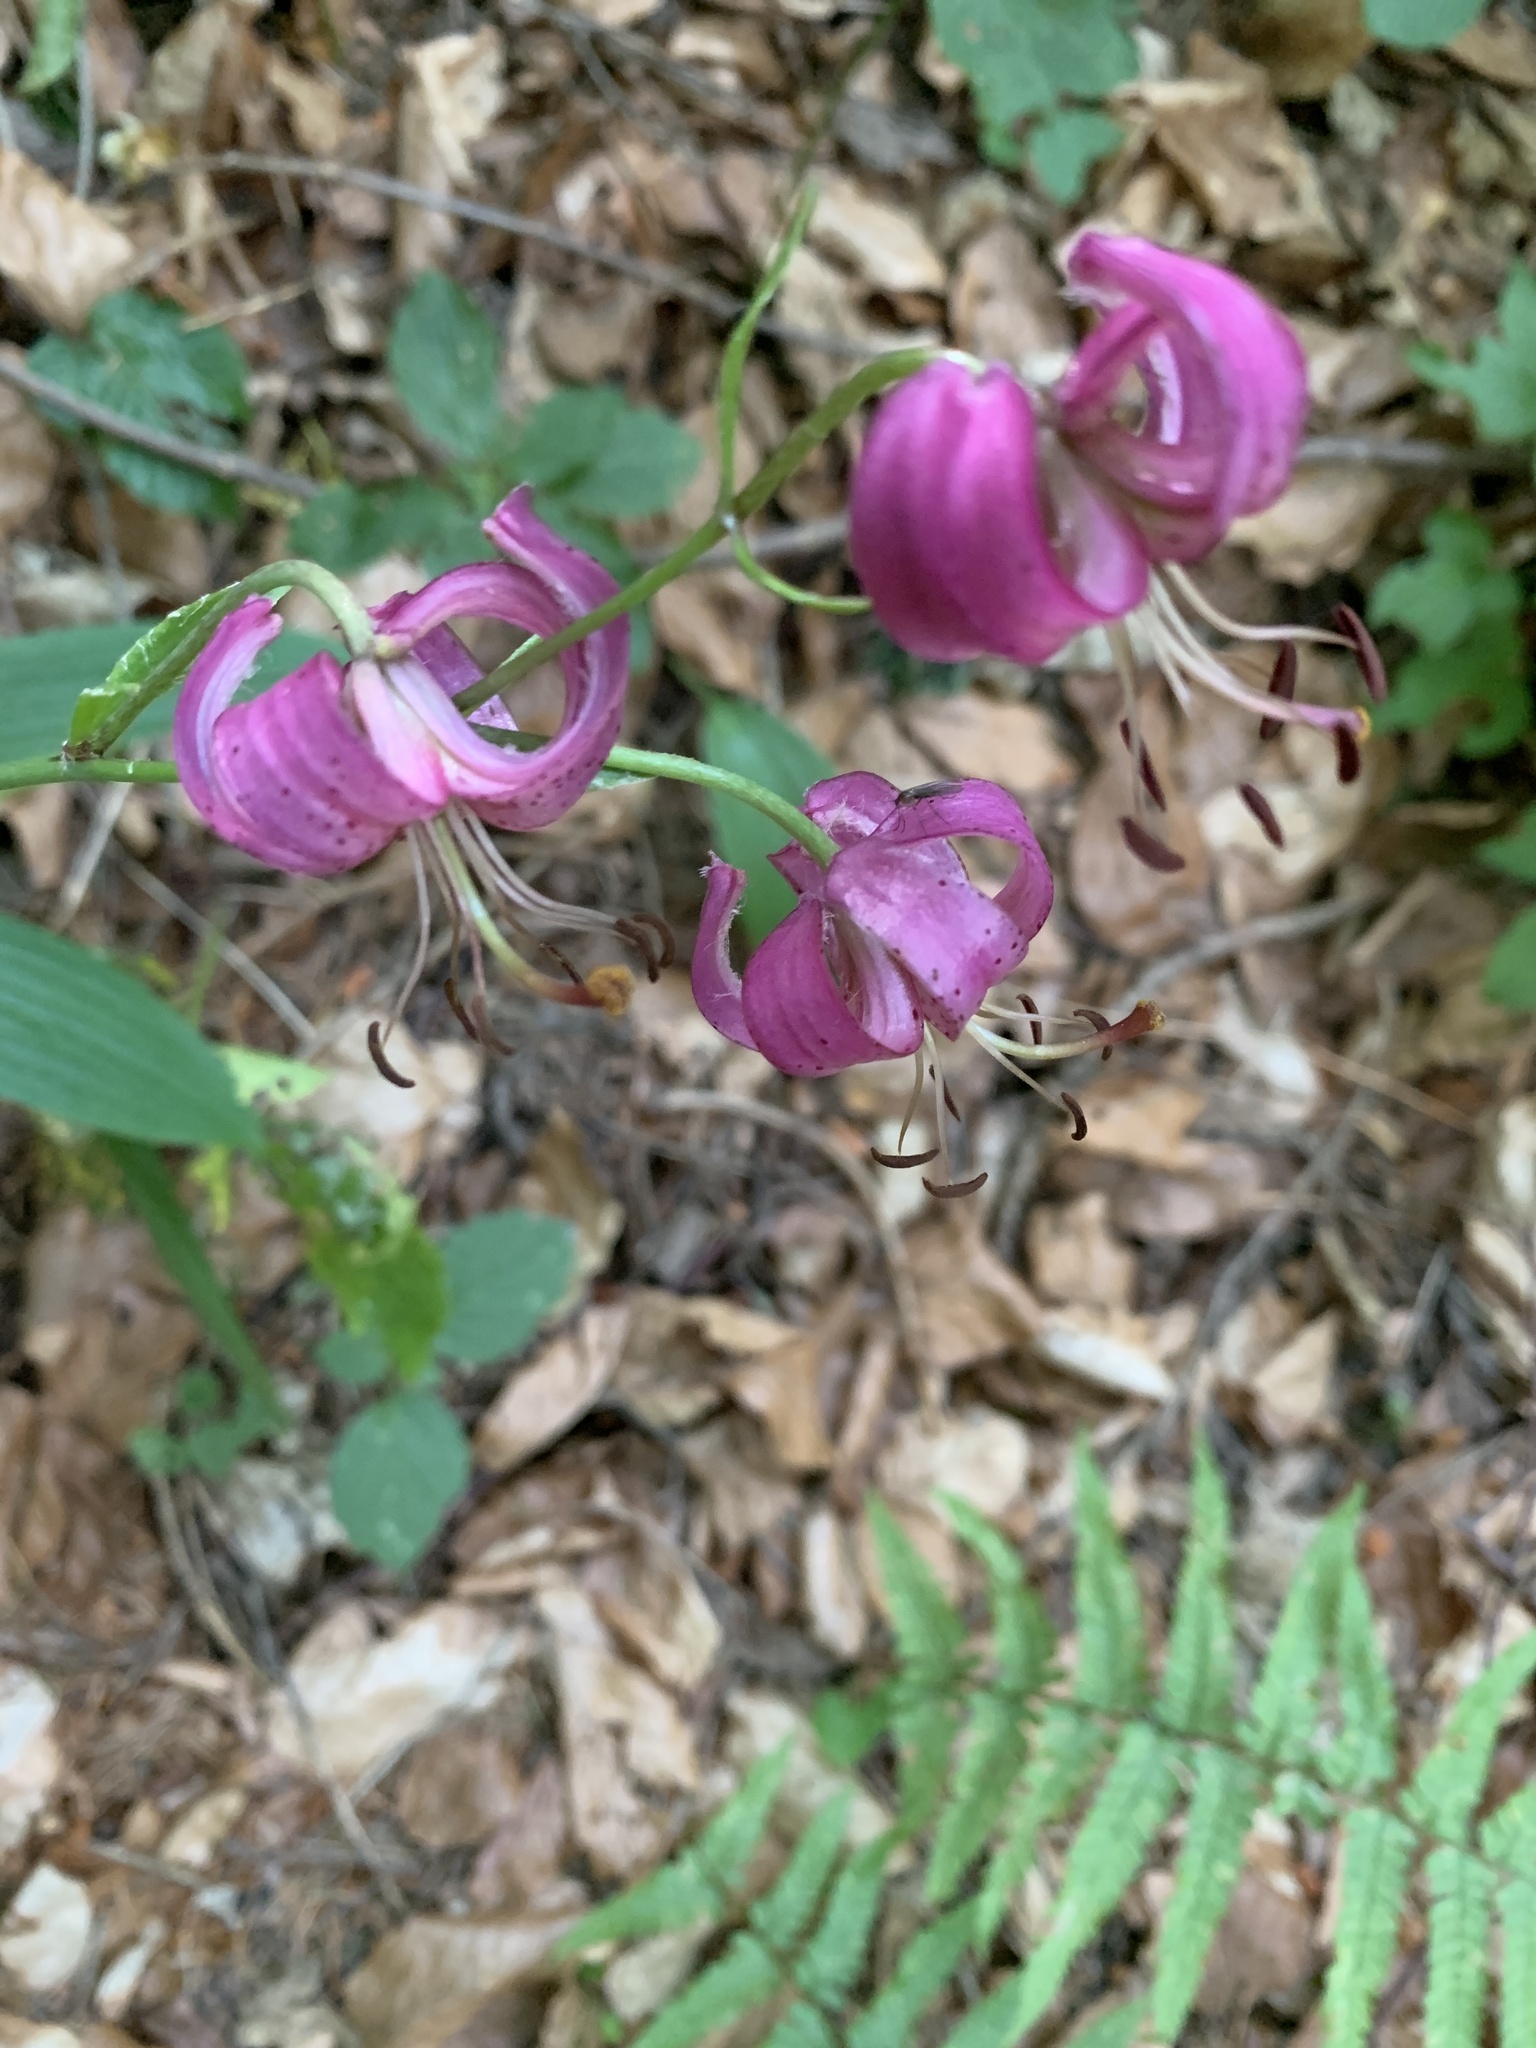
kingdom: Plantae
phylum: Tracheophyta
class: Liliopsida
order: Liliales
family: Liliaceae
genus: Lilium
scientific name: Lilium martagon
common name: Martagon lily
